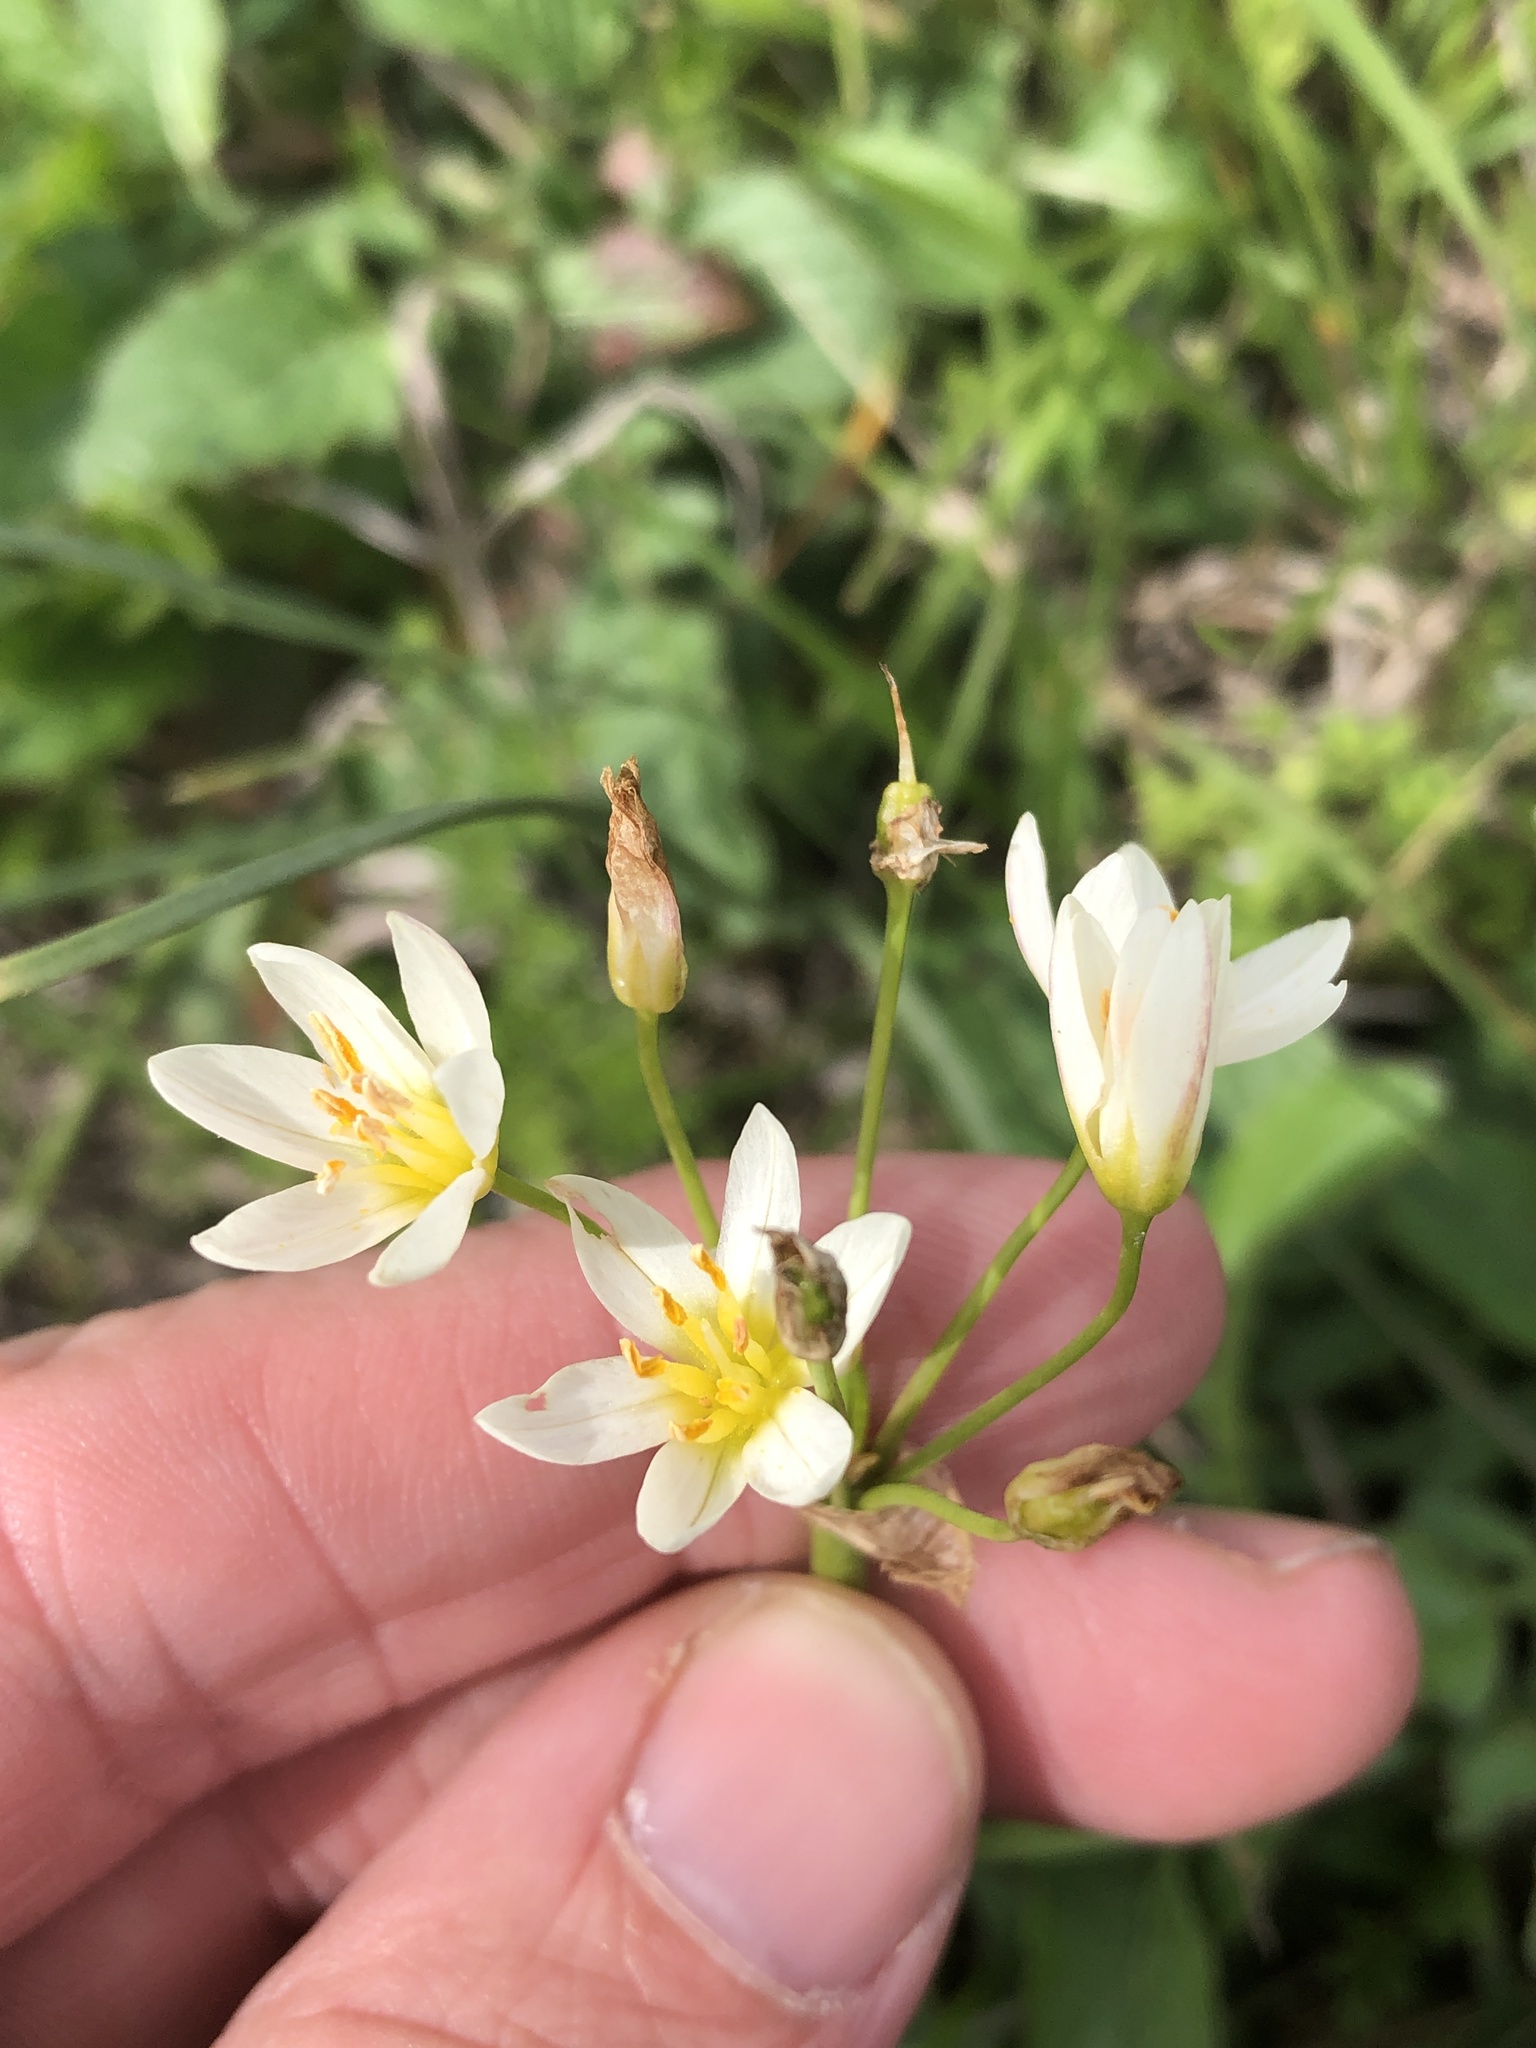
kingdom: Plantae
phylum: Tracheophyta
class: Liliopsida
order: Asparagales
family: Amaryllidaceae
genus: Nothoscordum
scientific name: Nothoscordum bivalve
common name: Crow-poison
